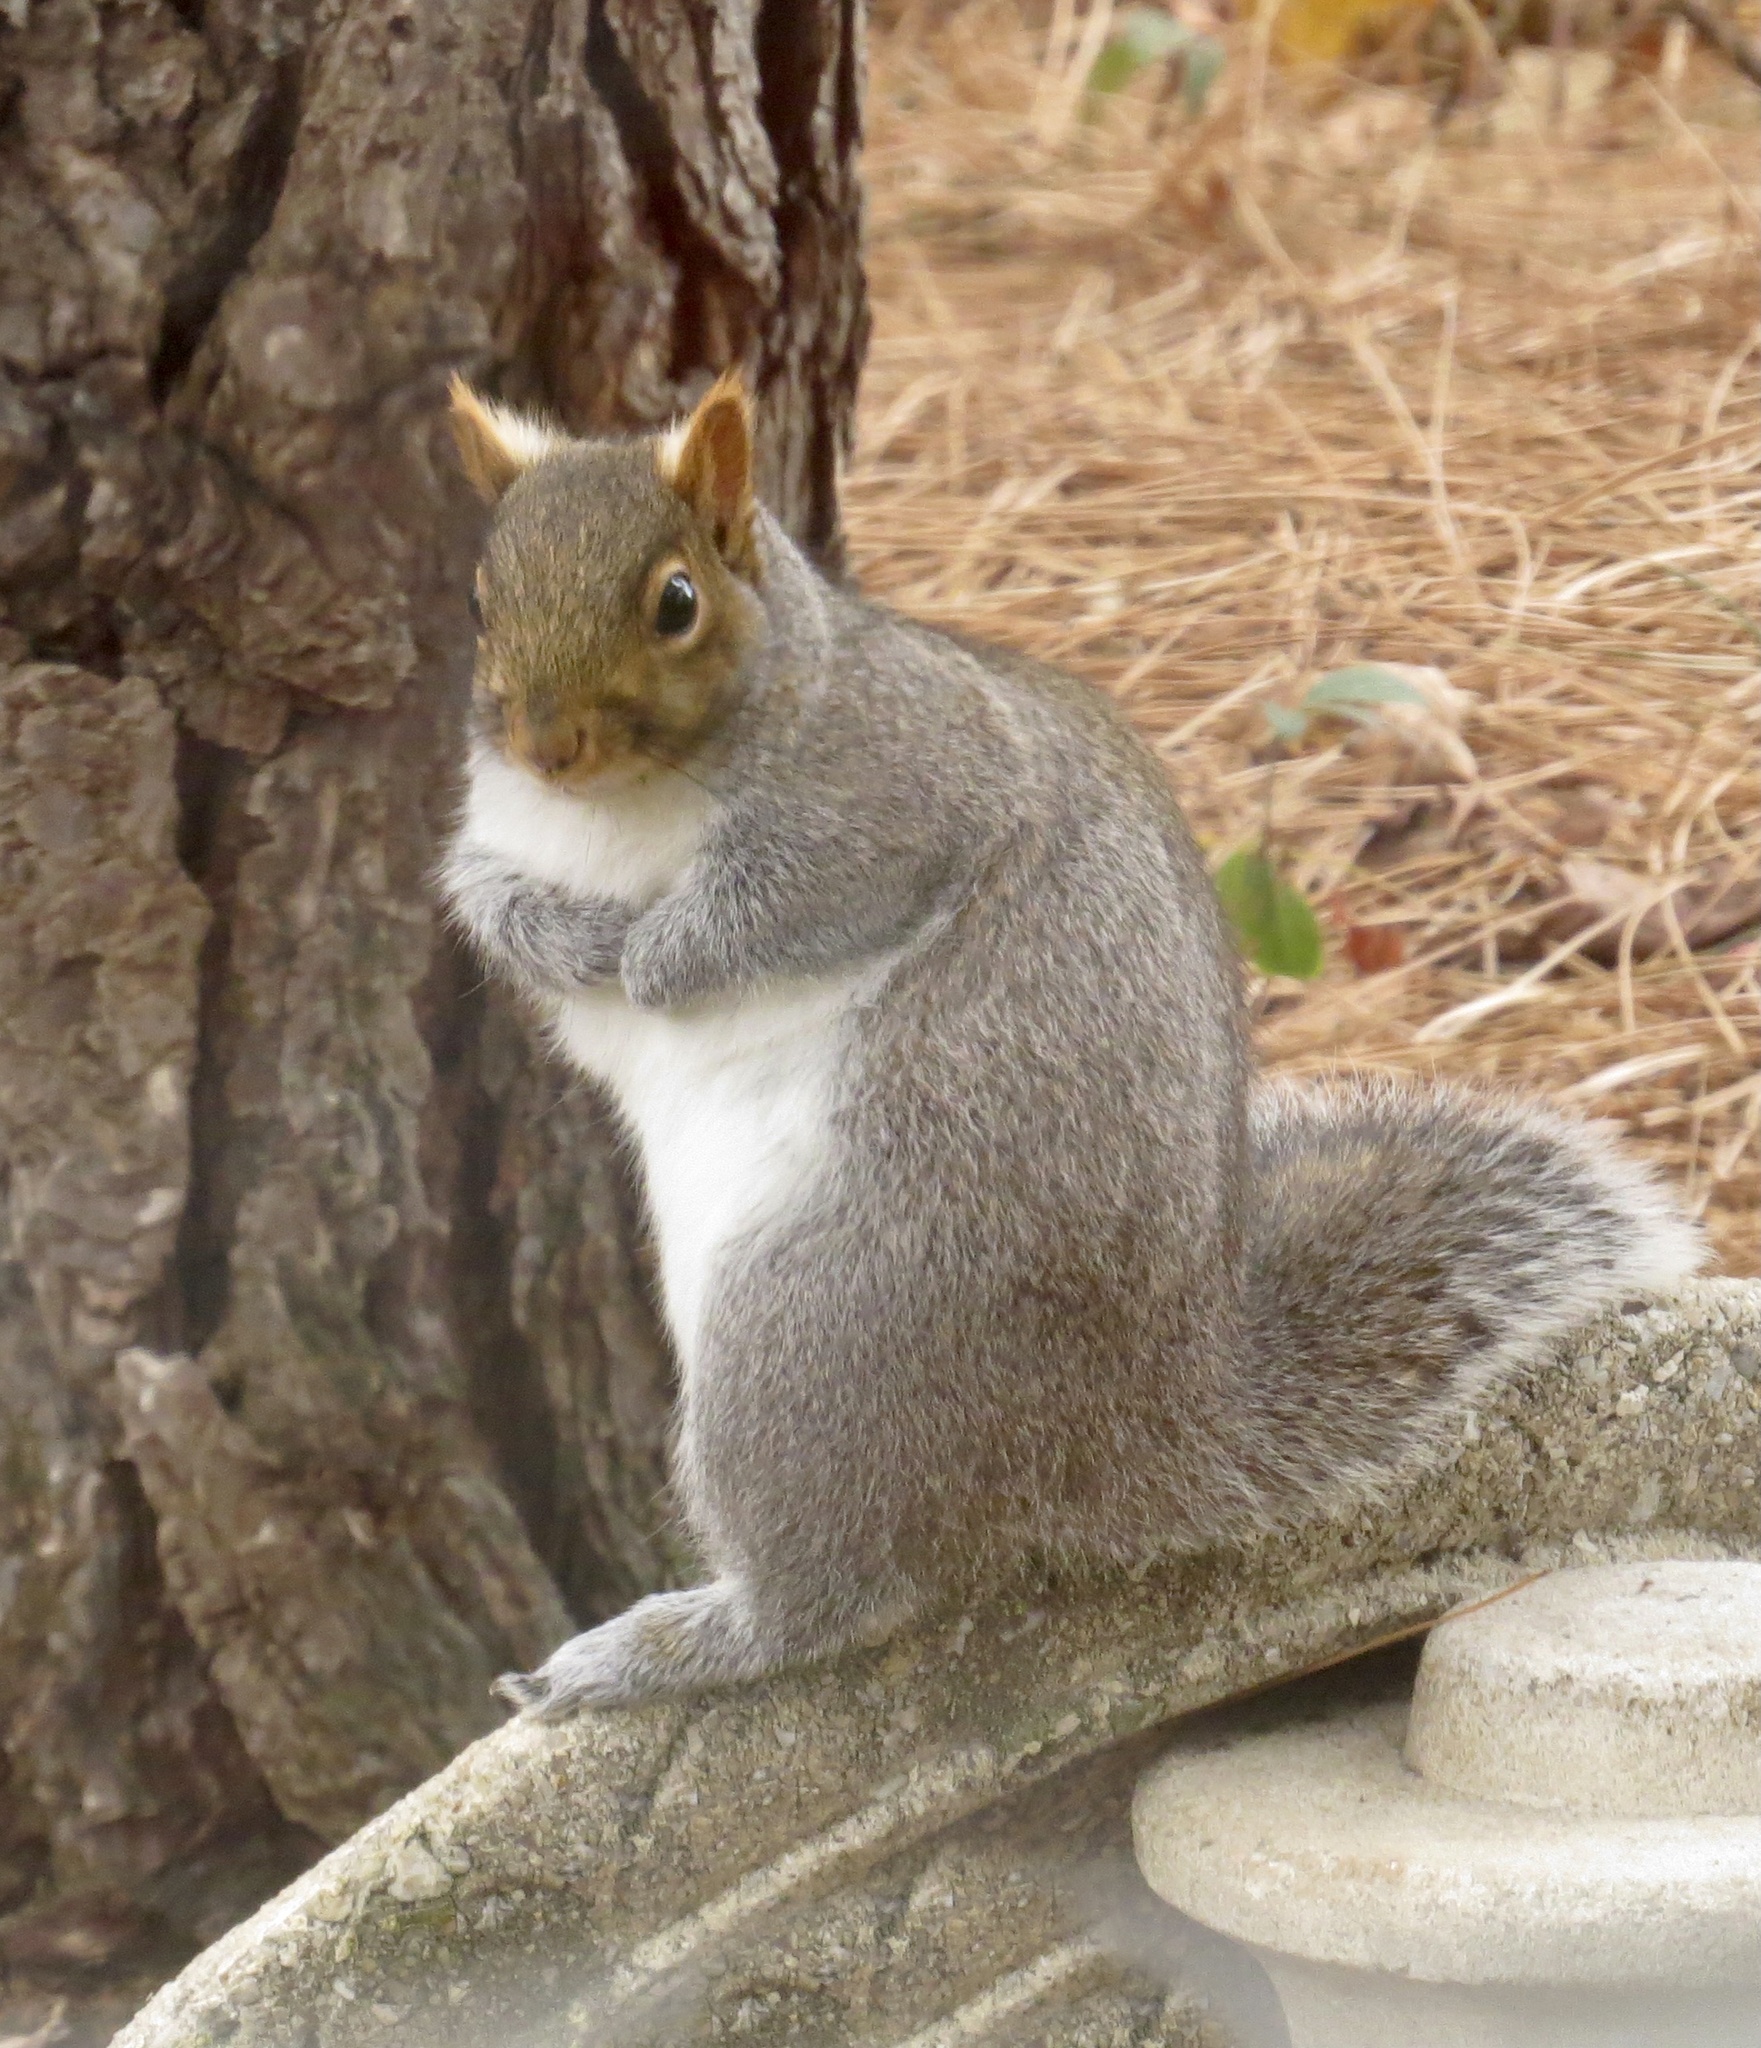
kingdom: Animalia
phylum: Chordata
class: Mammalia
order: Rodentia
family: Sciuridae
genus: Sciurus
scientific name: Sciurus carolinensis
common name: Eastern gray squirrel
